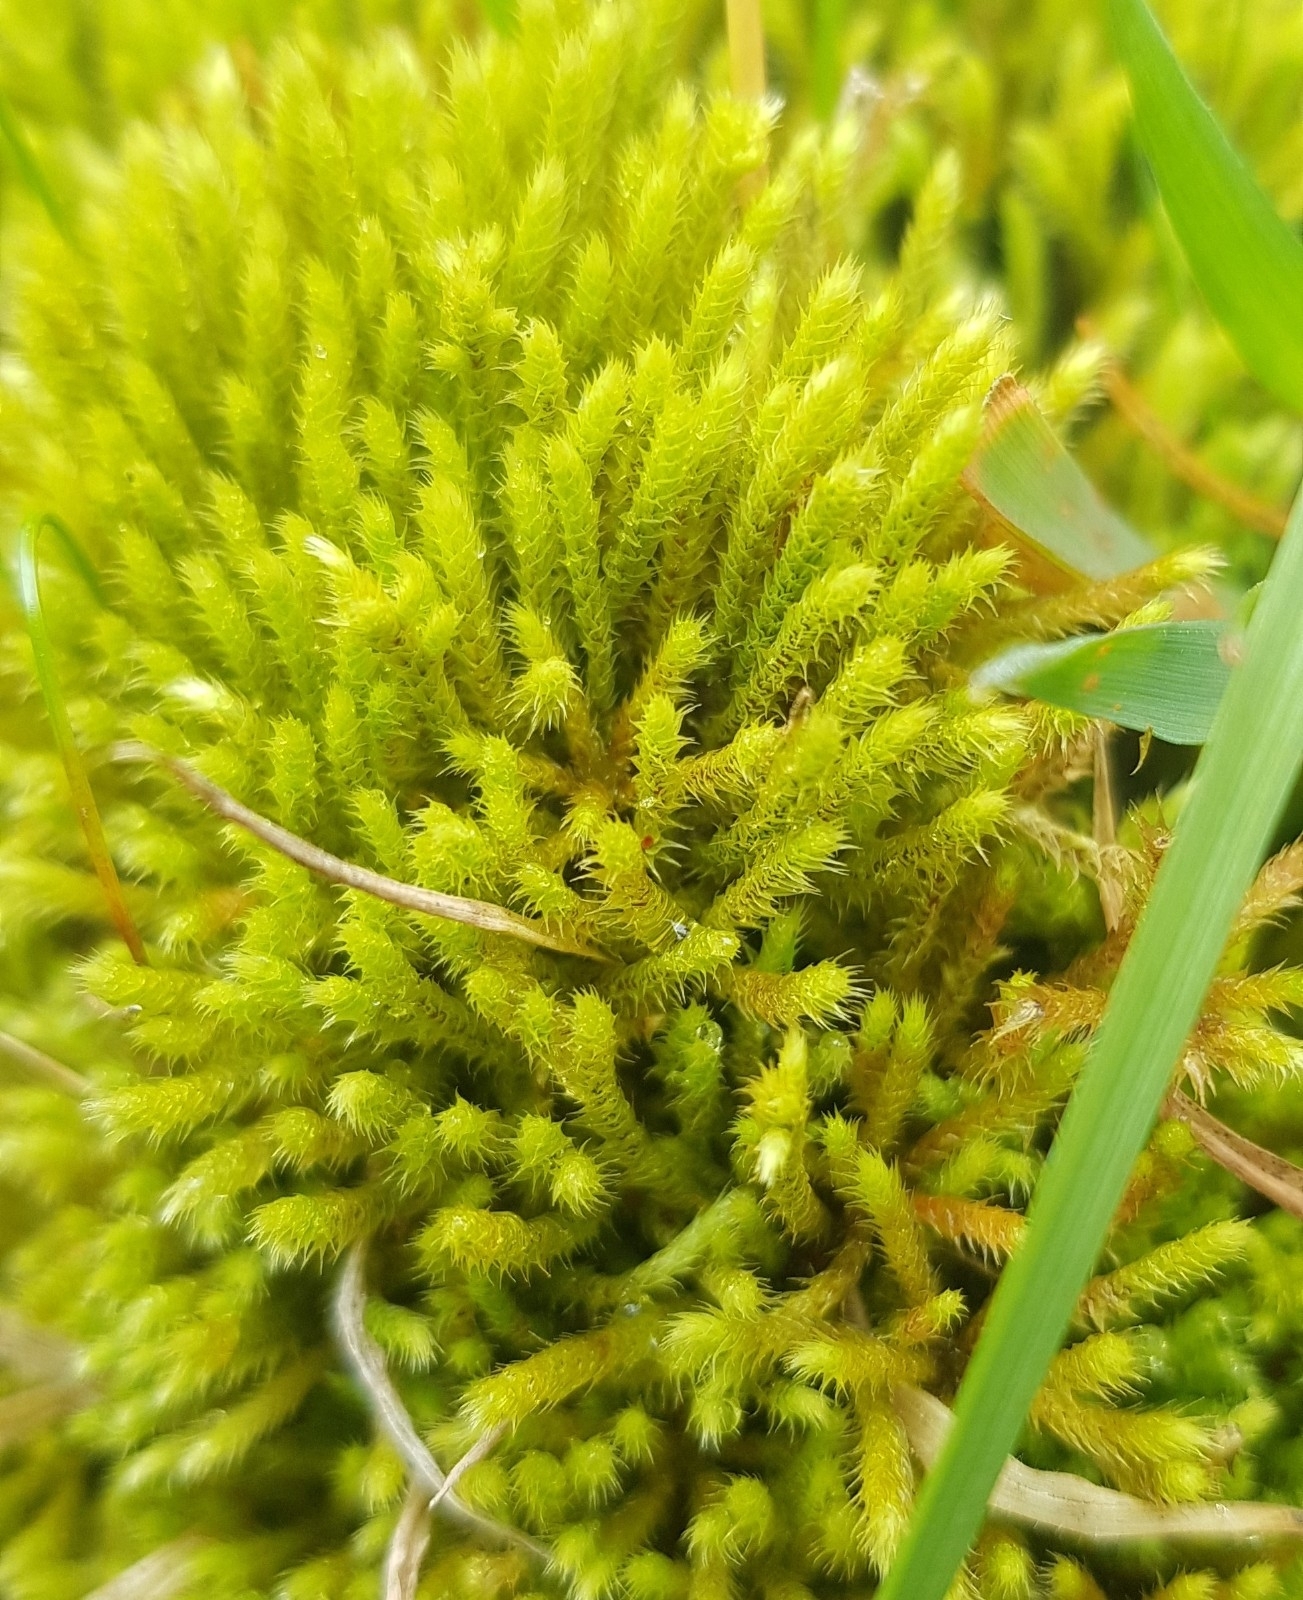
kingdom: Plantae
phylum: Bryophyta
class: Bryopsida
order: Bartramiales
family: Bartramiaceae
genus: Philonotis
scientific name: Philonotis fontana
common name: Fountain apple-moss
